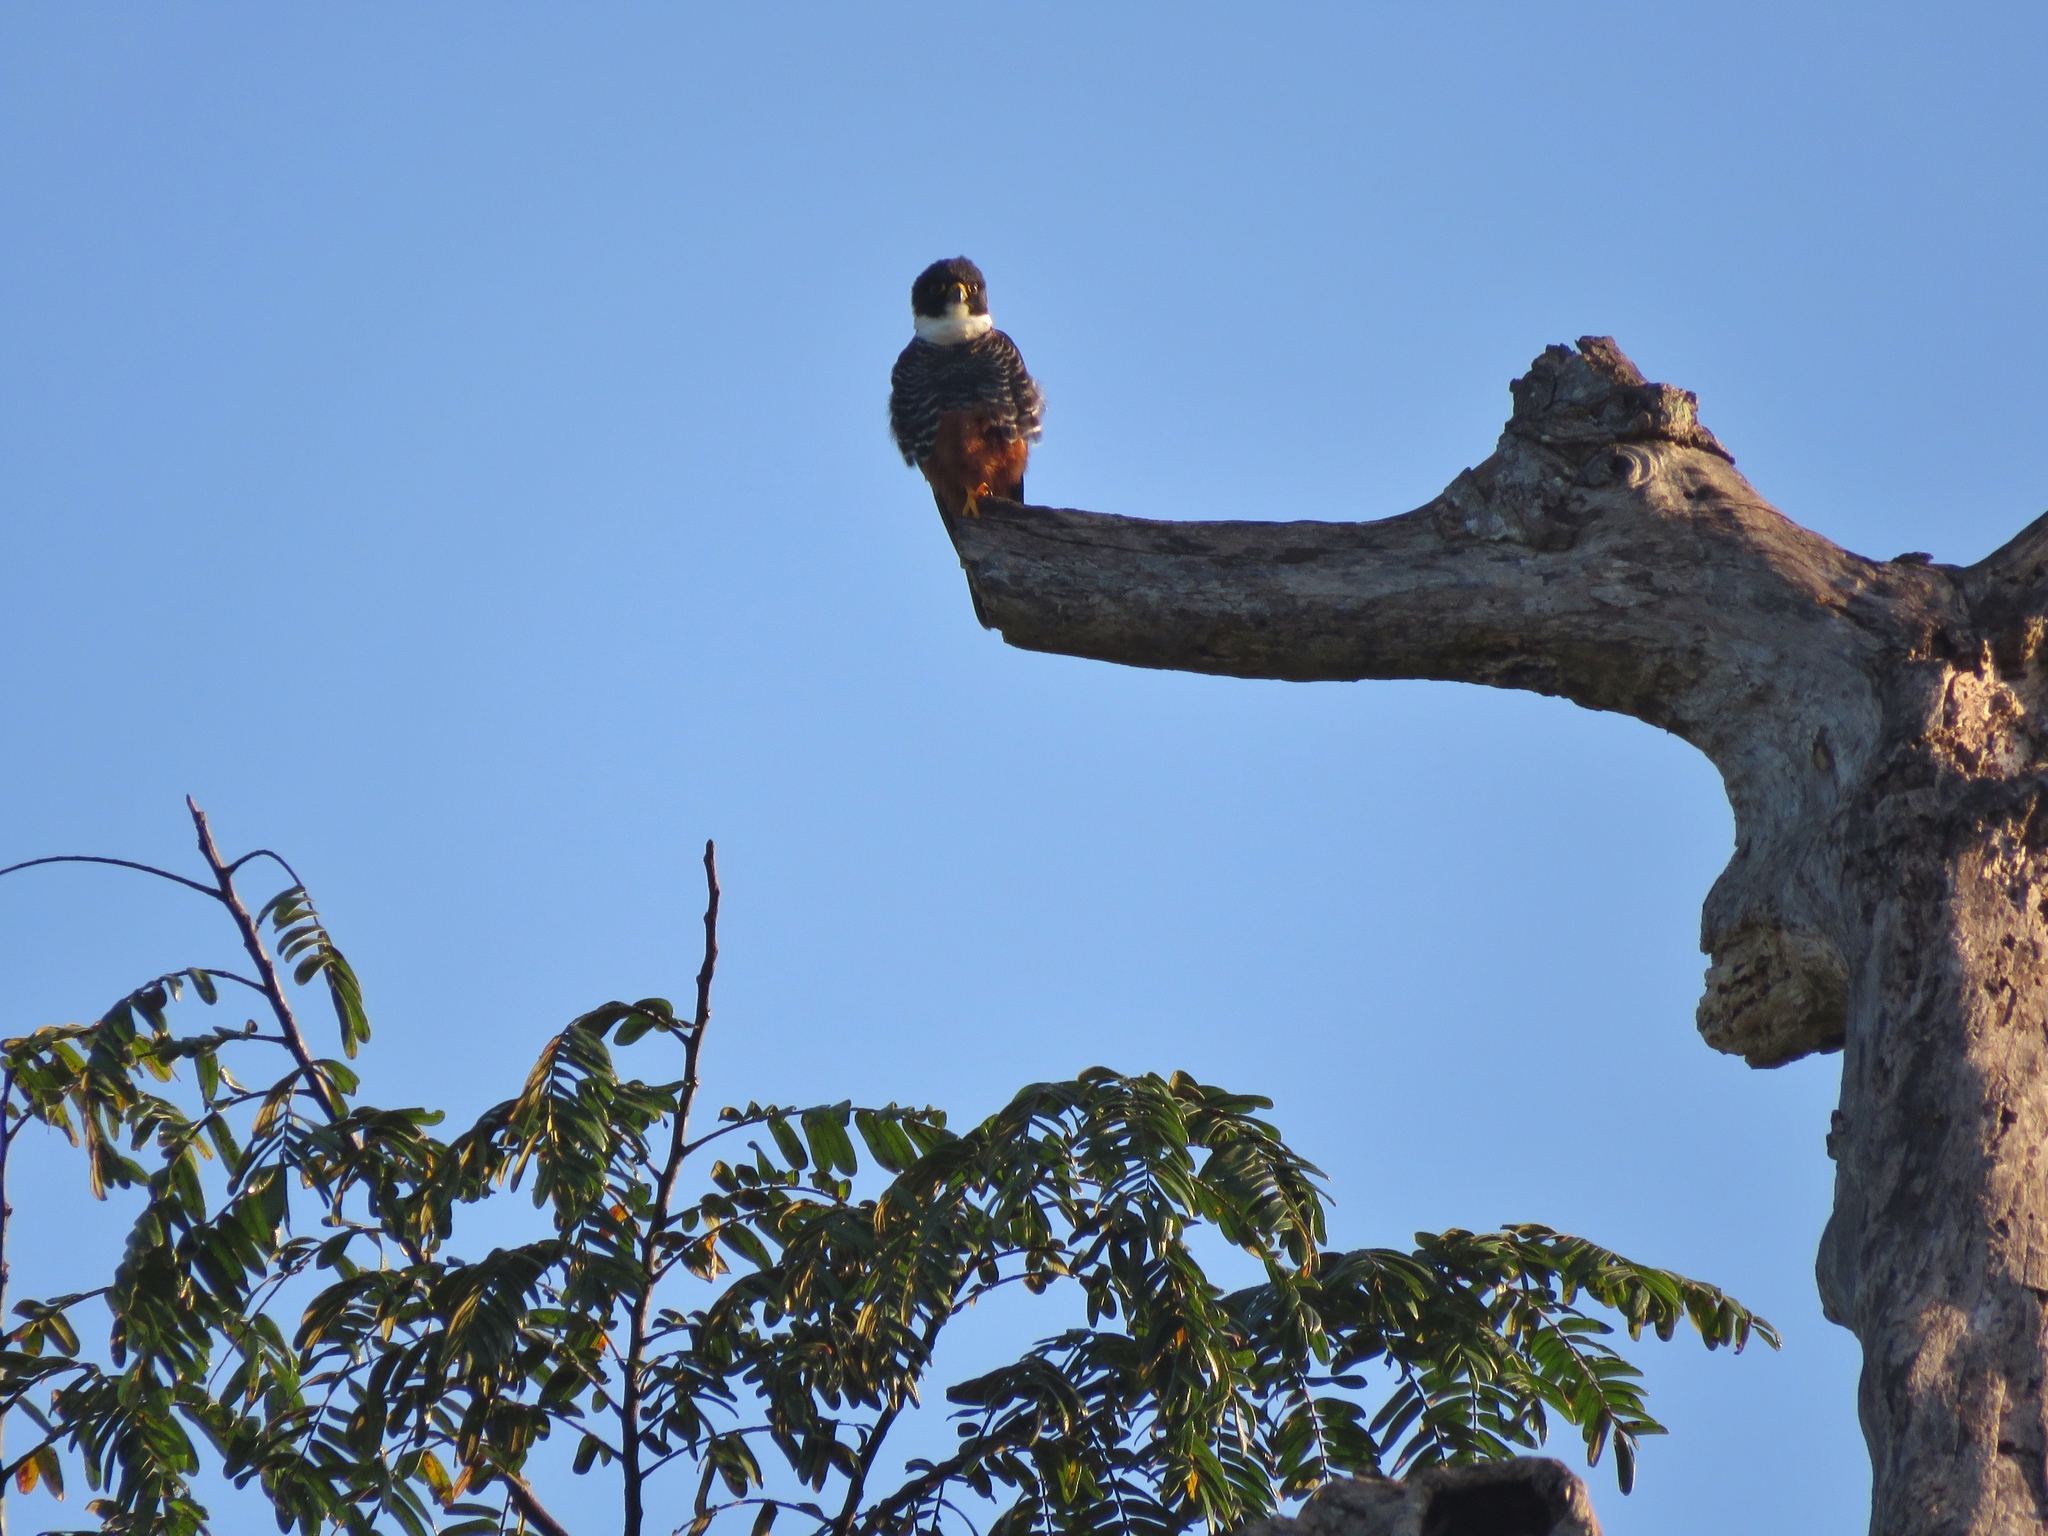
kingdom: Animalia
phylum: Chordata
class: Aves
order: Falconiformes
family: Falconidae
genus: Falco
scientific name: Falco rufigularis
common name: Bat falcon
